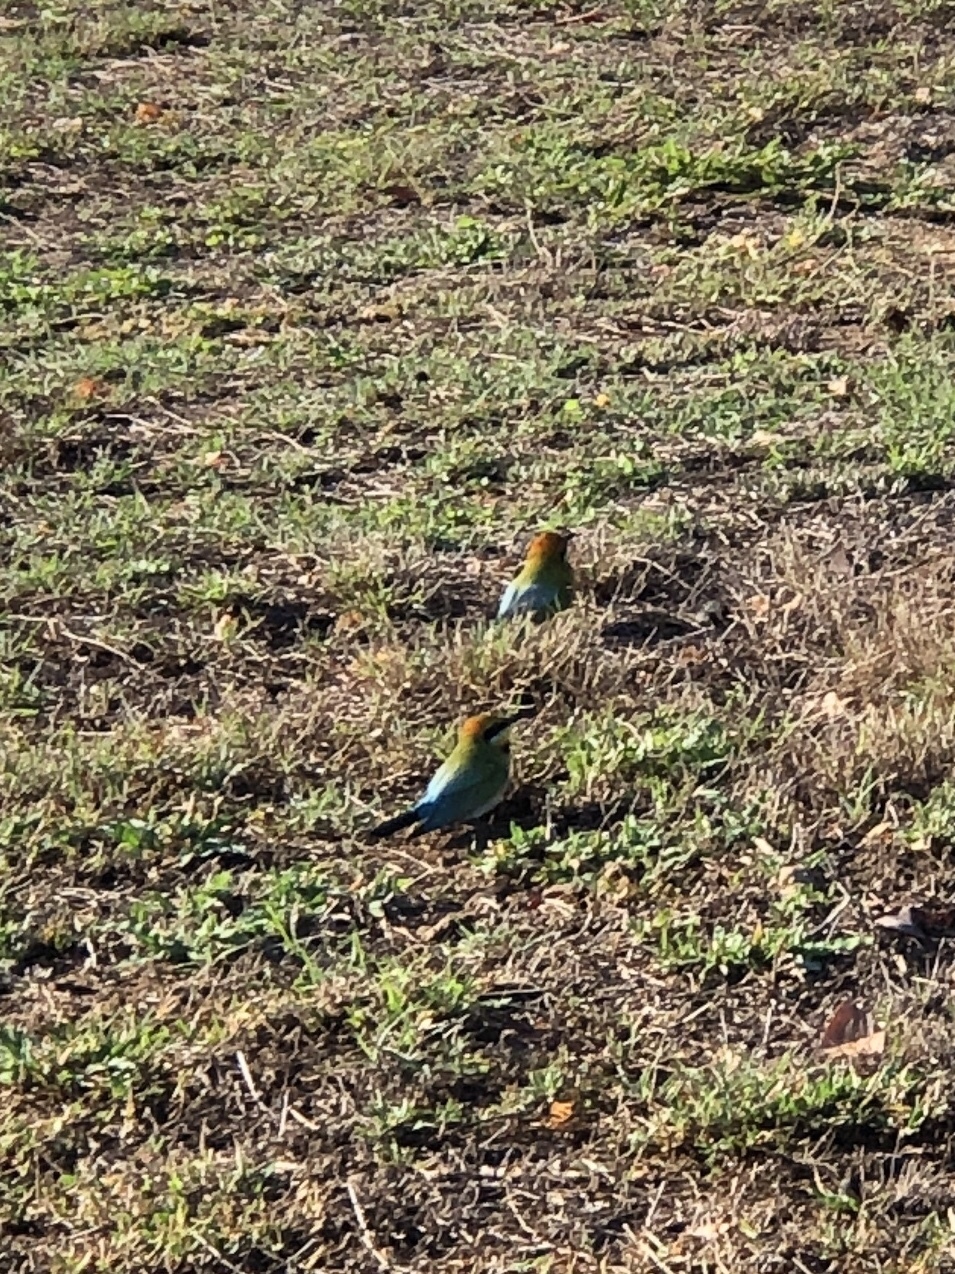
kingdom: Animalia
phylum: Chordata
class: Aves
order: Coraciiformes
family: Meropidae
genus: Merops
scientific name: Merops ornatus
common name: Rainbow bee-eater
